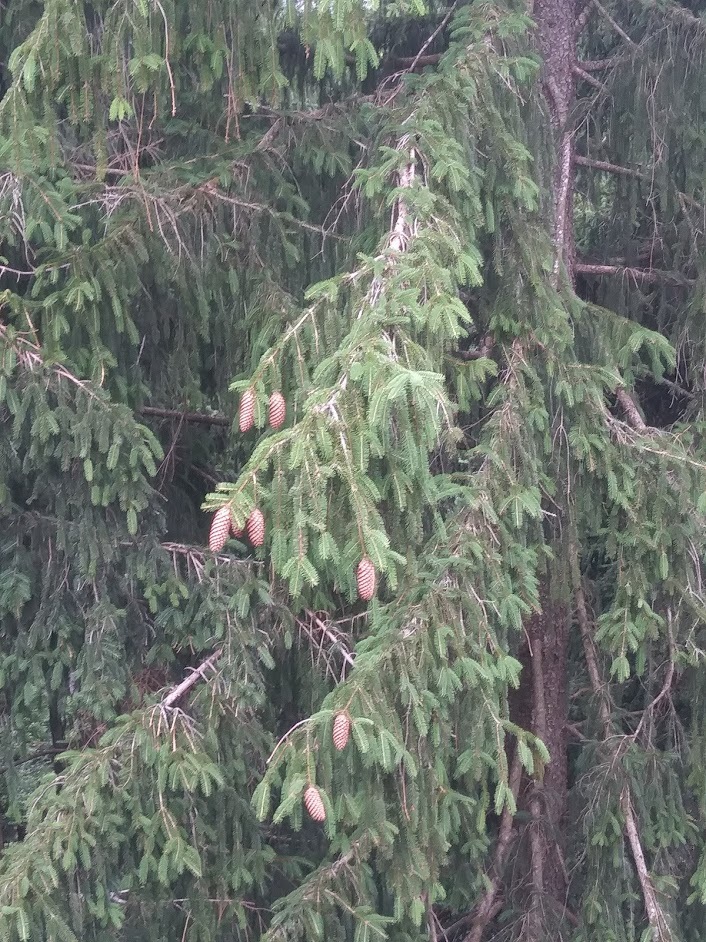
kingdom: Plantae
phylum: Tracheophyta
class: Pinopsida
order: Pinales
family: Pinaceae
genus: Picea
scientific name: Picea abies
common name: Norway spruce
